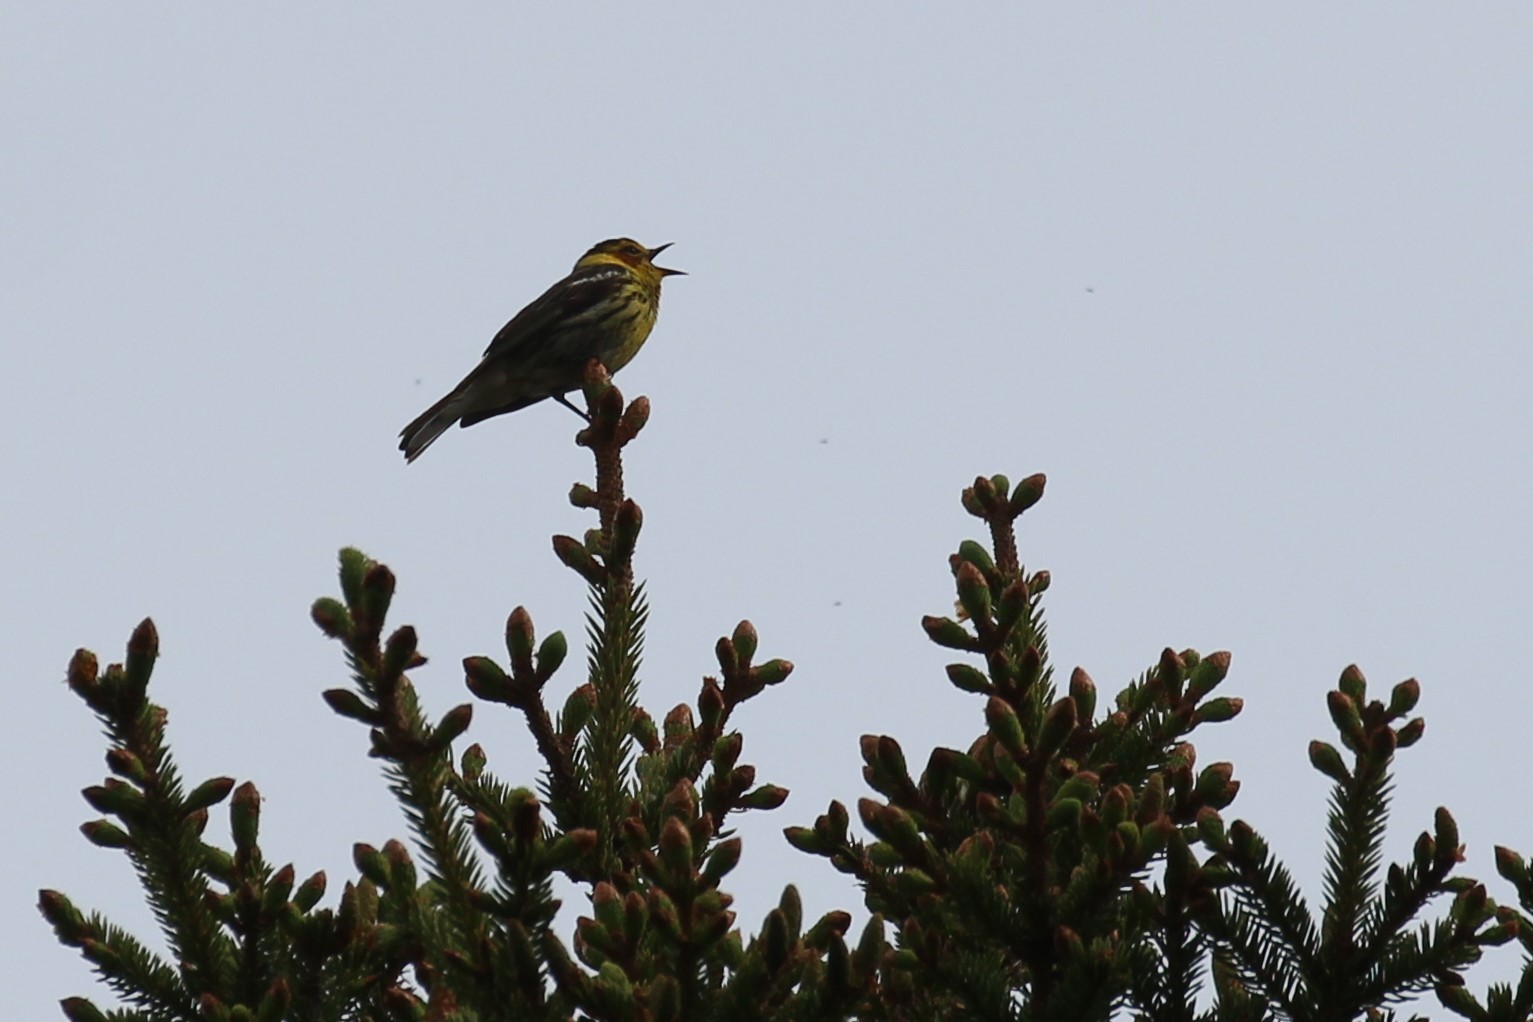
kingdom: Animalia
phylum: Chordata
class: Aves
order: Passeriformes
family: Parulidae
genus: Setophaga
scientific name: Setophaga tigrina
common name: Cape may warbler
